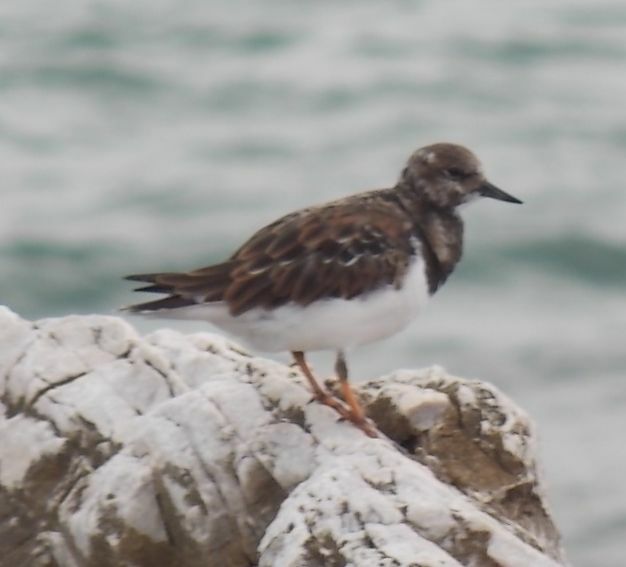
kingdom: Animalia
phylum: Chordata
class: Aves
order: Charadriiformes
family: Scolopacidae
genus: Arenaria
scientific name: Arenaria interpres
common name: Ruddy turnstone
